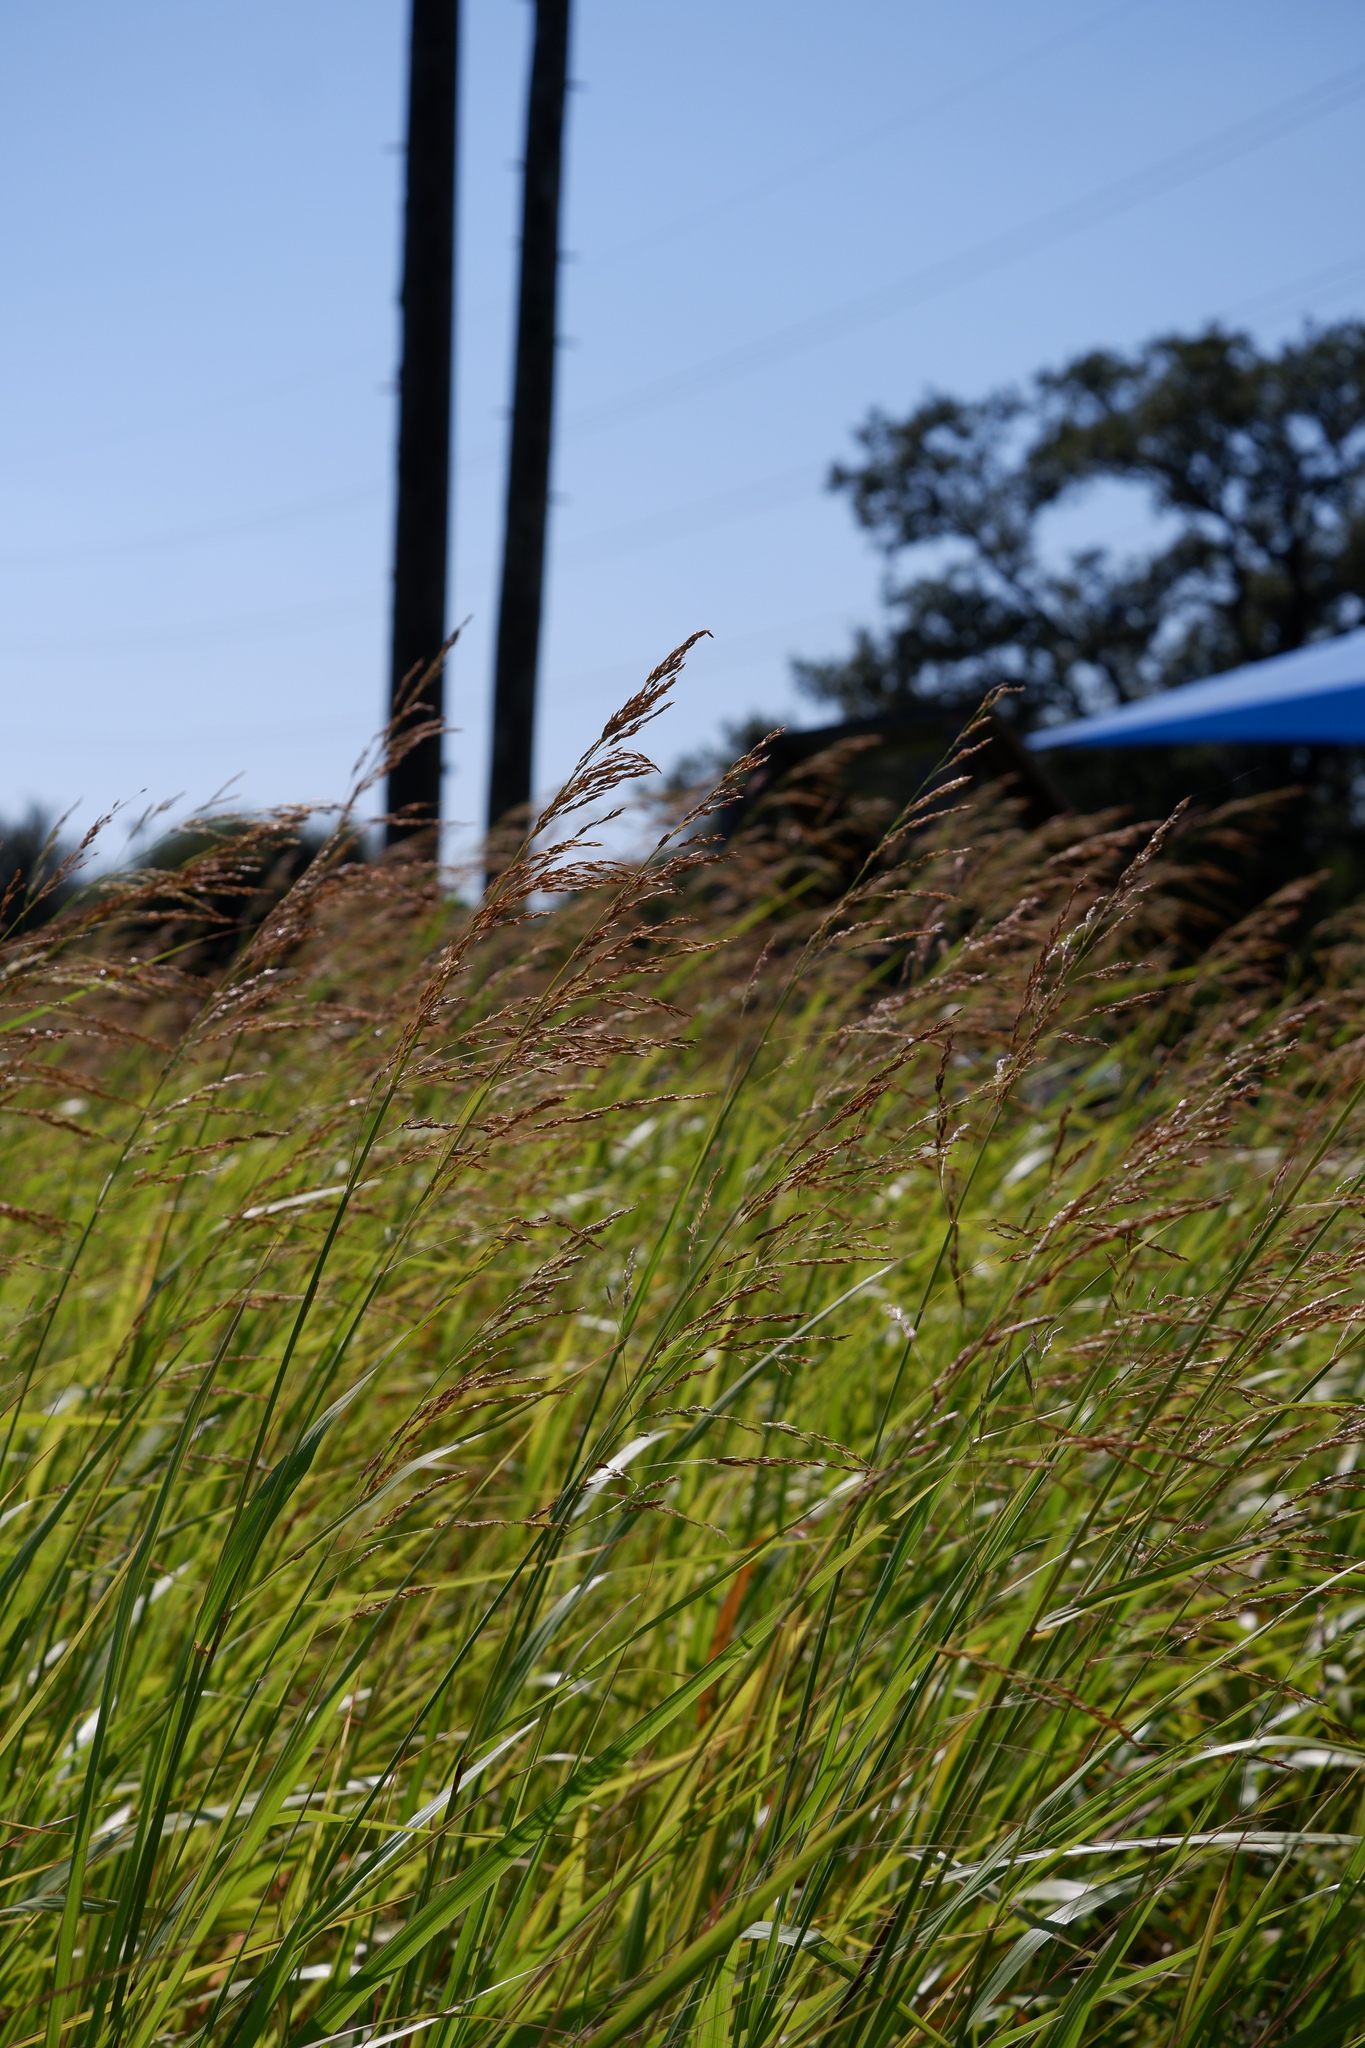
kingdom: Plantae
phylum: Tracheophyta
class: Liliopsida
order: Poales
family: Poaceae
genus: Sorghum
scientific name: Sorghum halepense
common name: Johnson-grass
